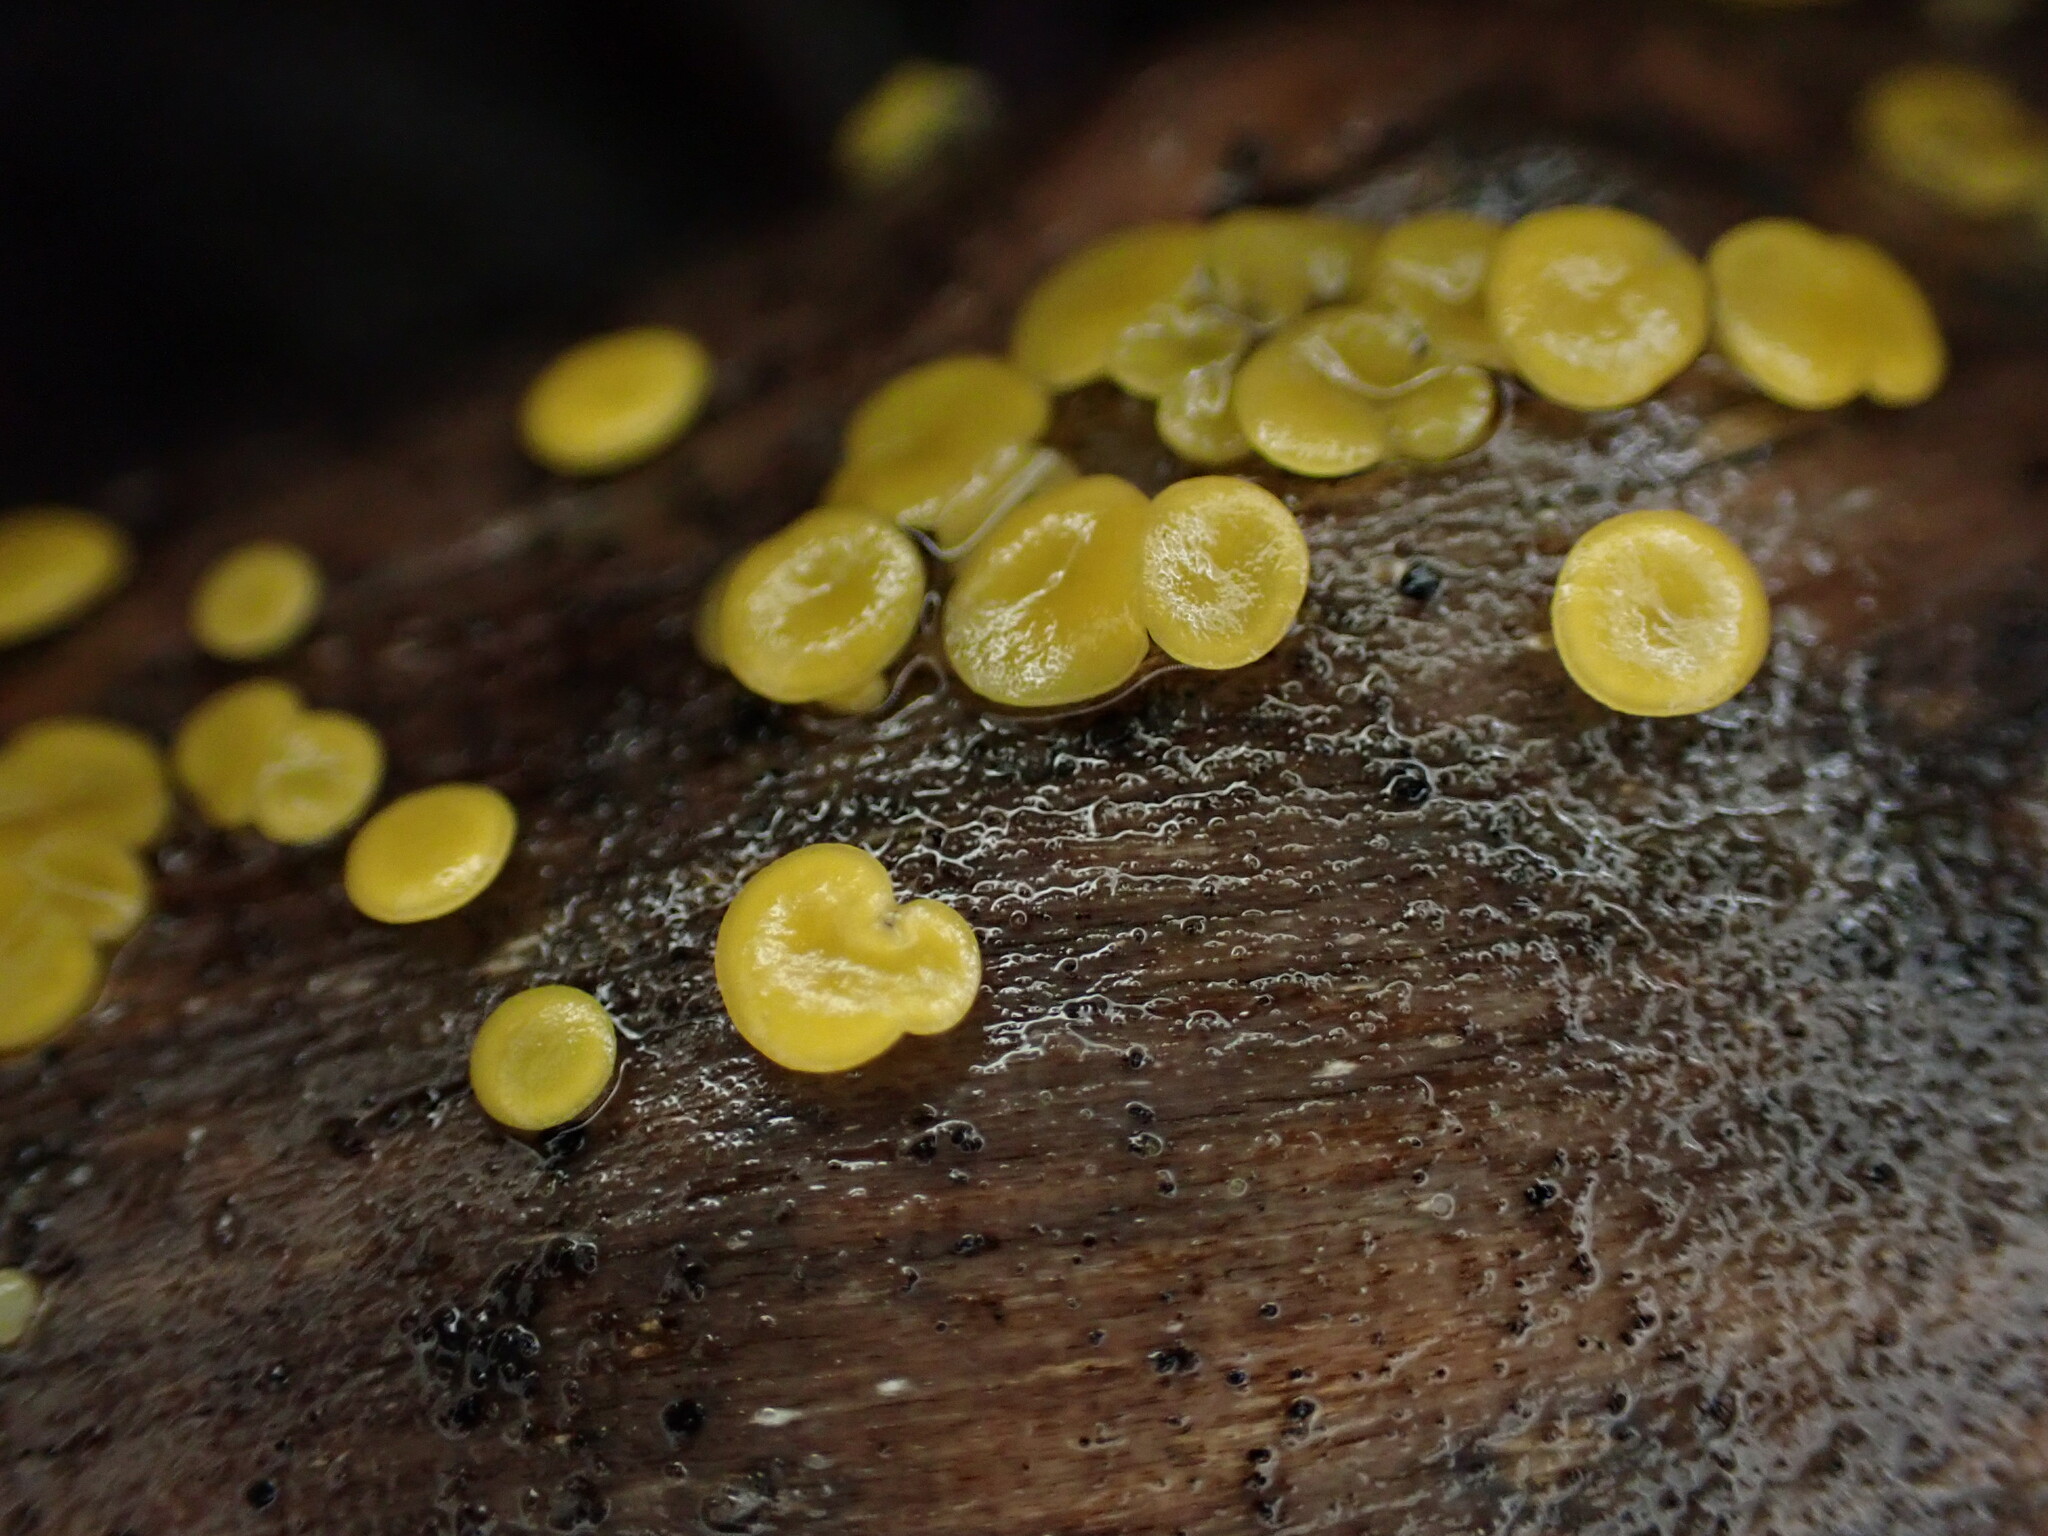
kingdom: Fungi
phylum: Ascomycota
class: Leotiomycetes
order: Helotiales
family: Pezizellaceae
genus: Calycina
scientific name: Calycina citrina
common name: Yellow fairy cups
